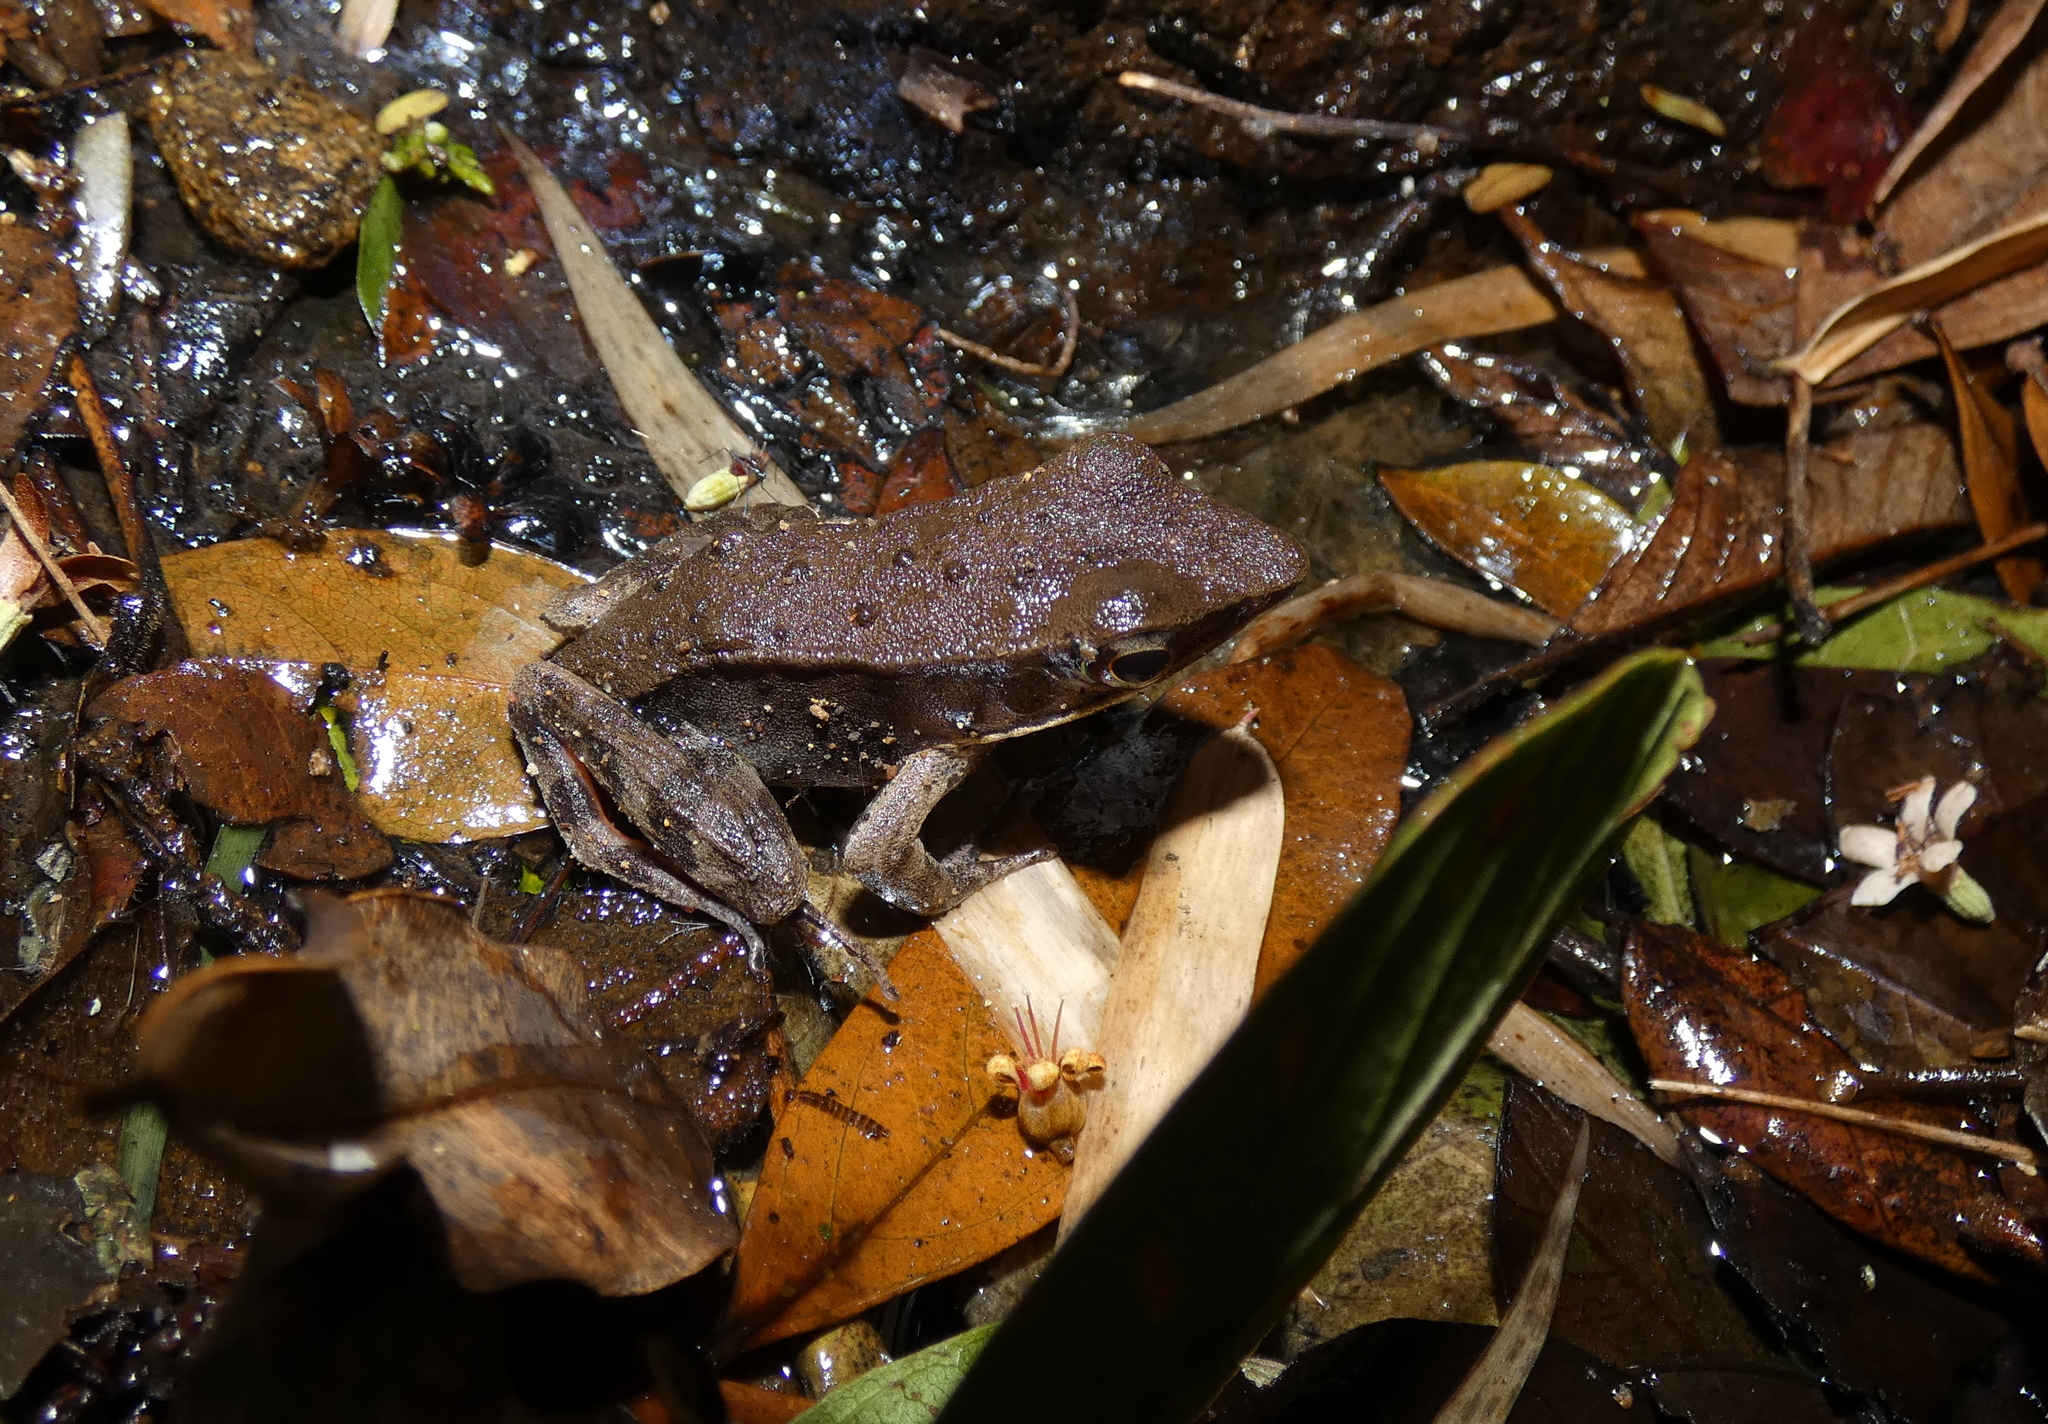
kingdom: Animalia
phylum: Chordata
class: Amphibia
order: Anura
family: Ranidae
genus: Lithobates
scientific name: Lithobates warszewitschii
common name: Warszewitsch's frog
